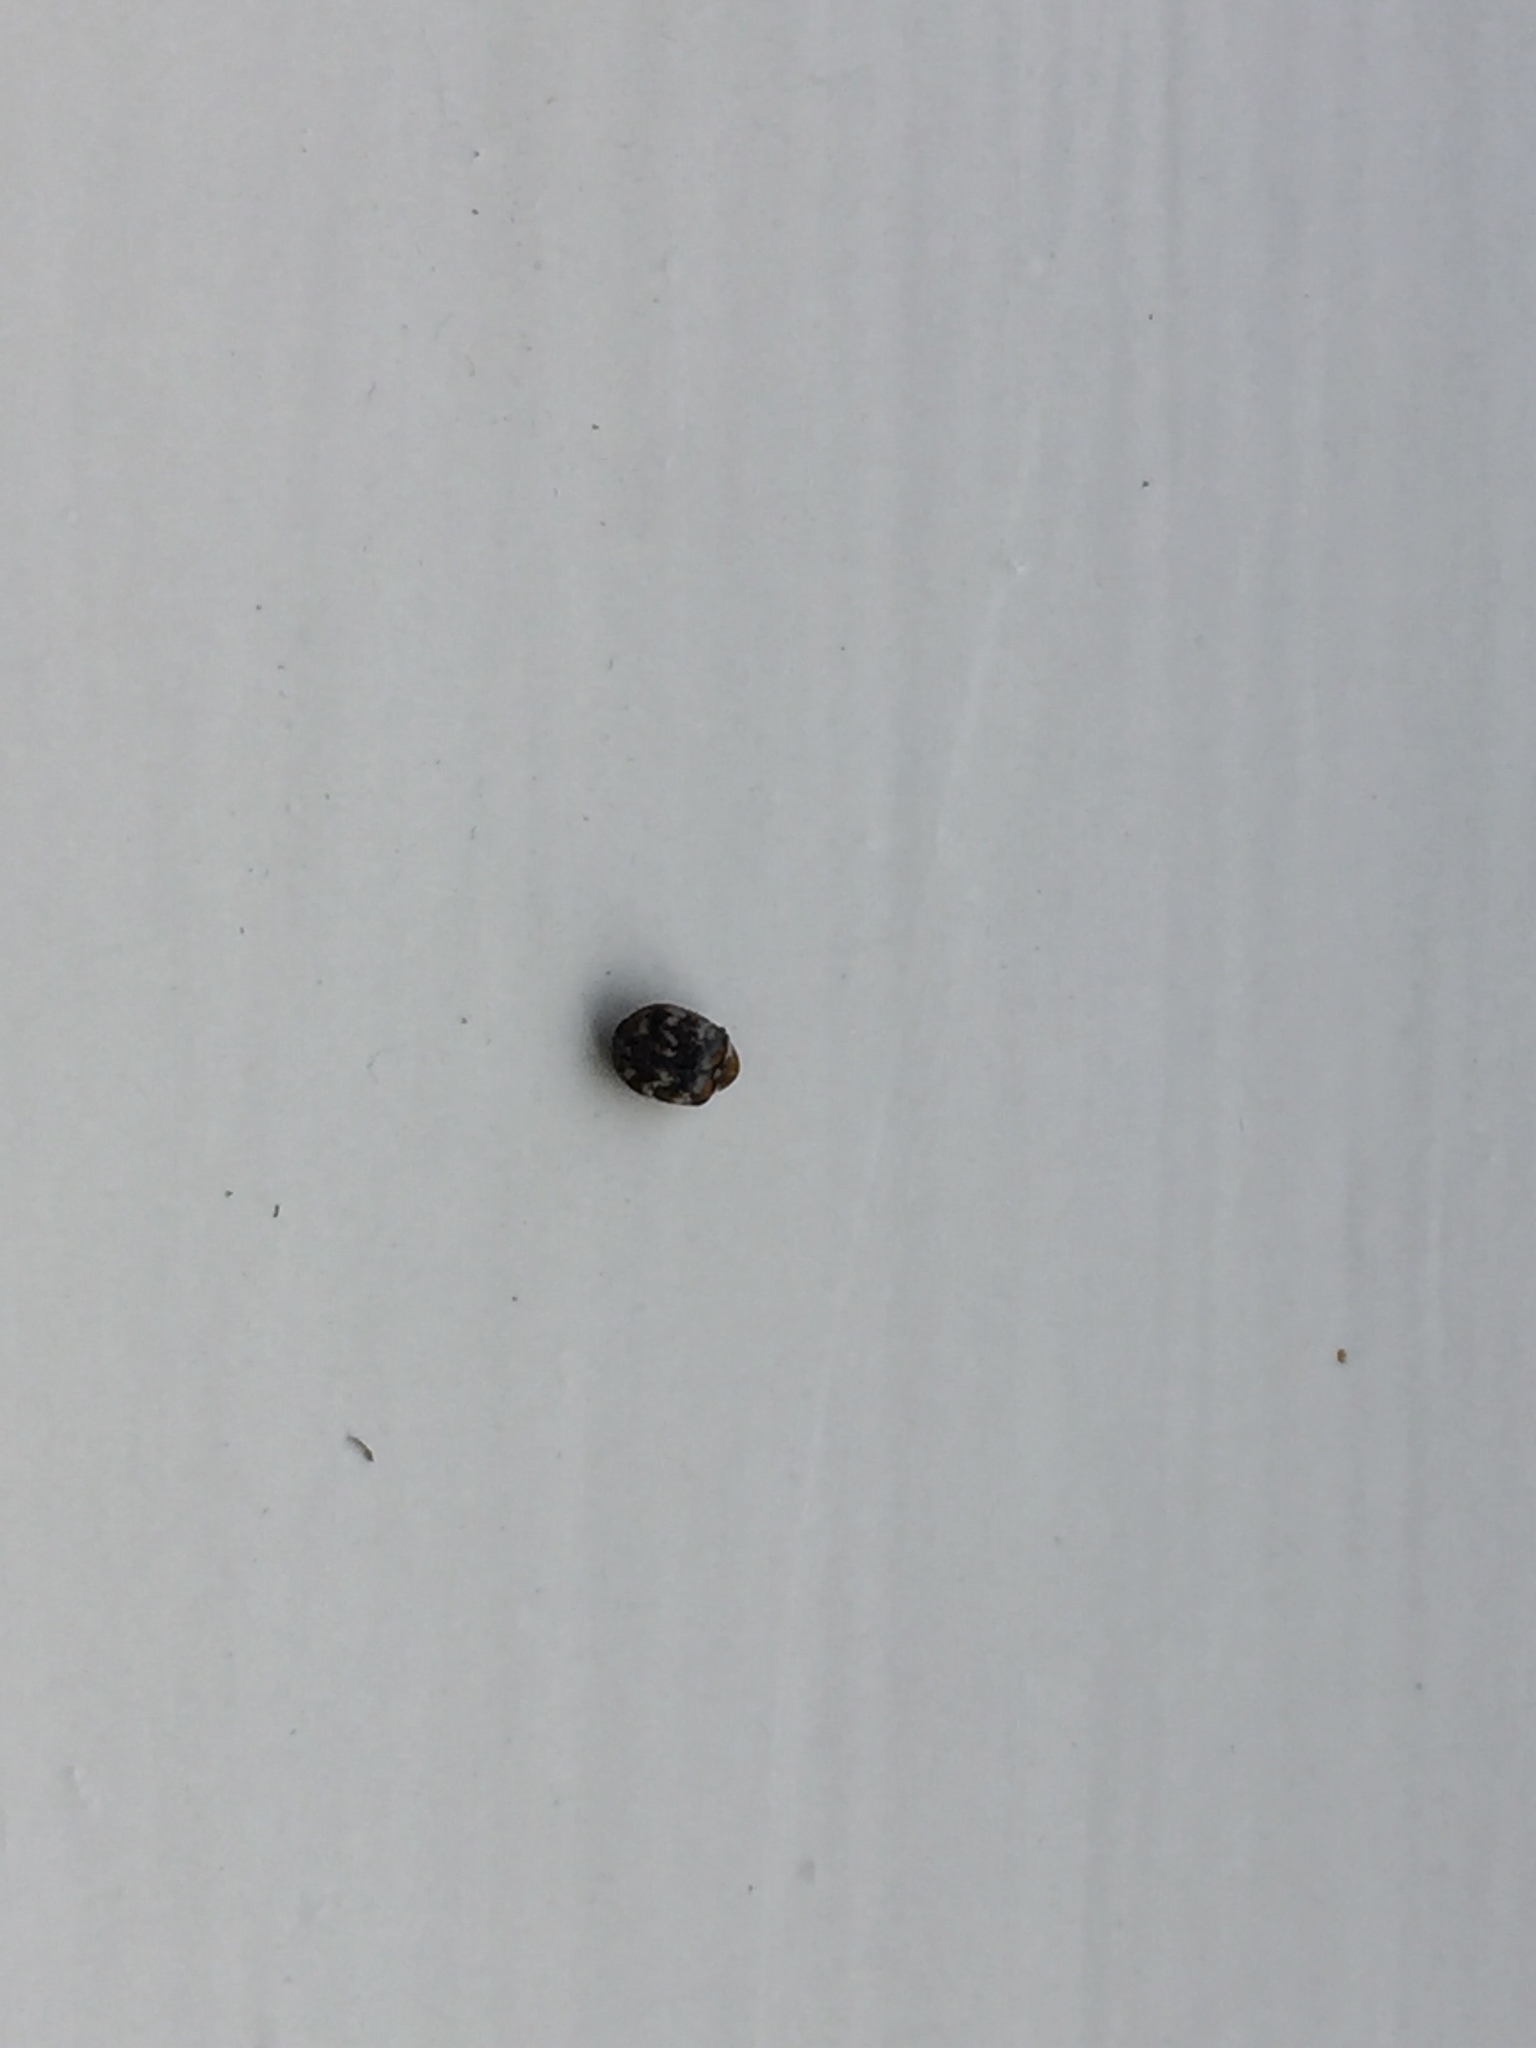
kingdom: Animalia
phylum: Arthropoda
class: Insecta
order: Coleoptera
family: Dermestidae
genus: Anthrenus
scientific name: Anthrenus verbasci
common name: Varied carpet beetle
